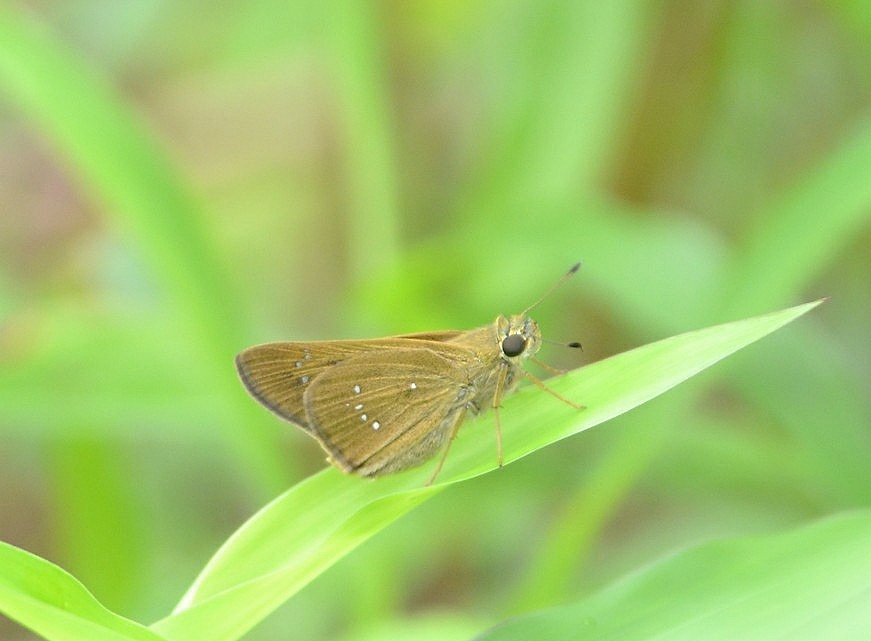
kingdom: Animalia
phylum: Arthropoda
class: Insecta
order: Lepidoptera
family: Hesperiidae
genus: Polytremis
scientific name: Polytremis lubricans
